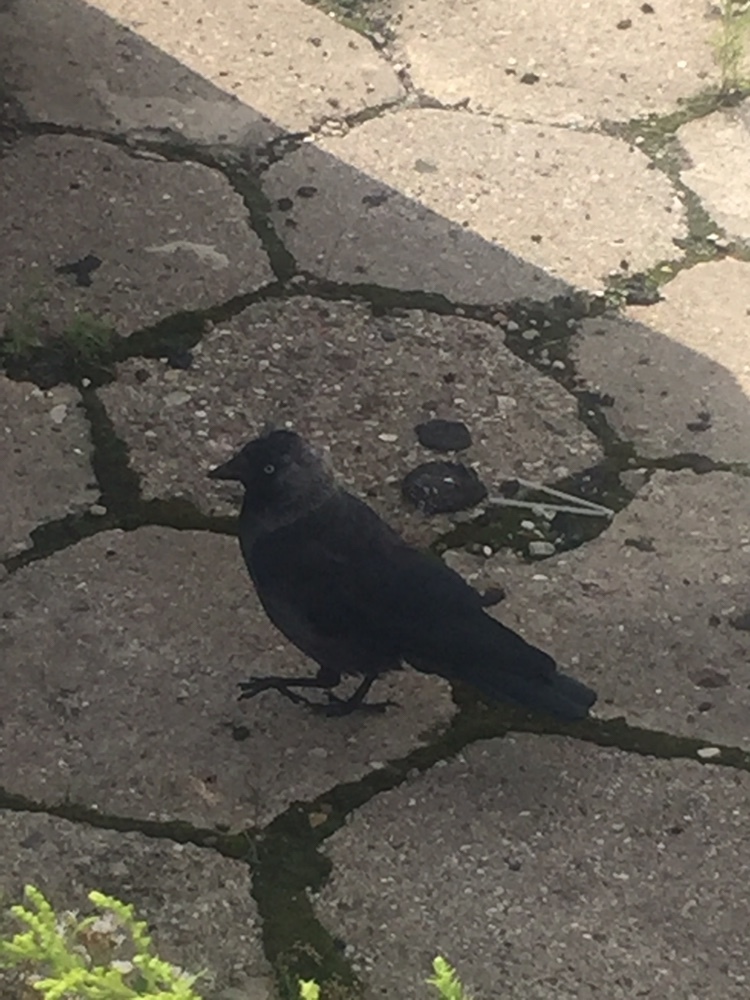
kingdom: Animalia
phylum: Chordata
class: Aves
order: Passeriformes
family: Corvidae
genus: Coloeus
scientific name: Coloeus monedula
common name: Western jackdaw
